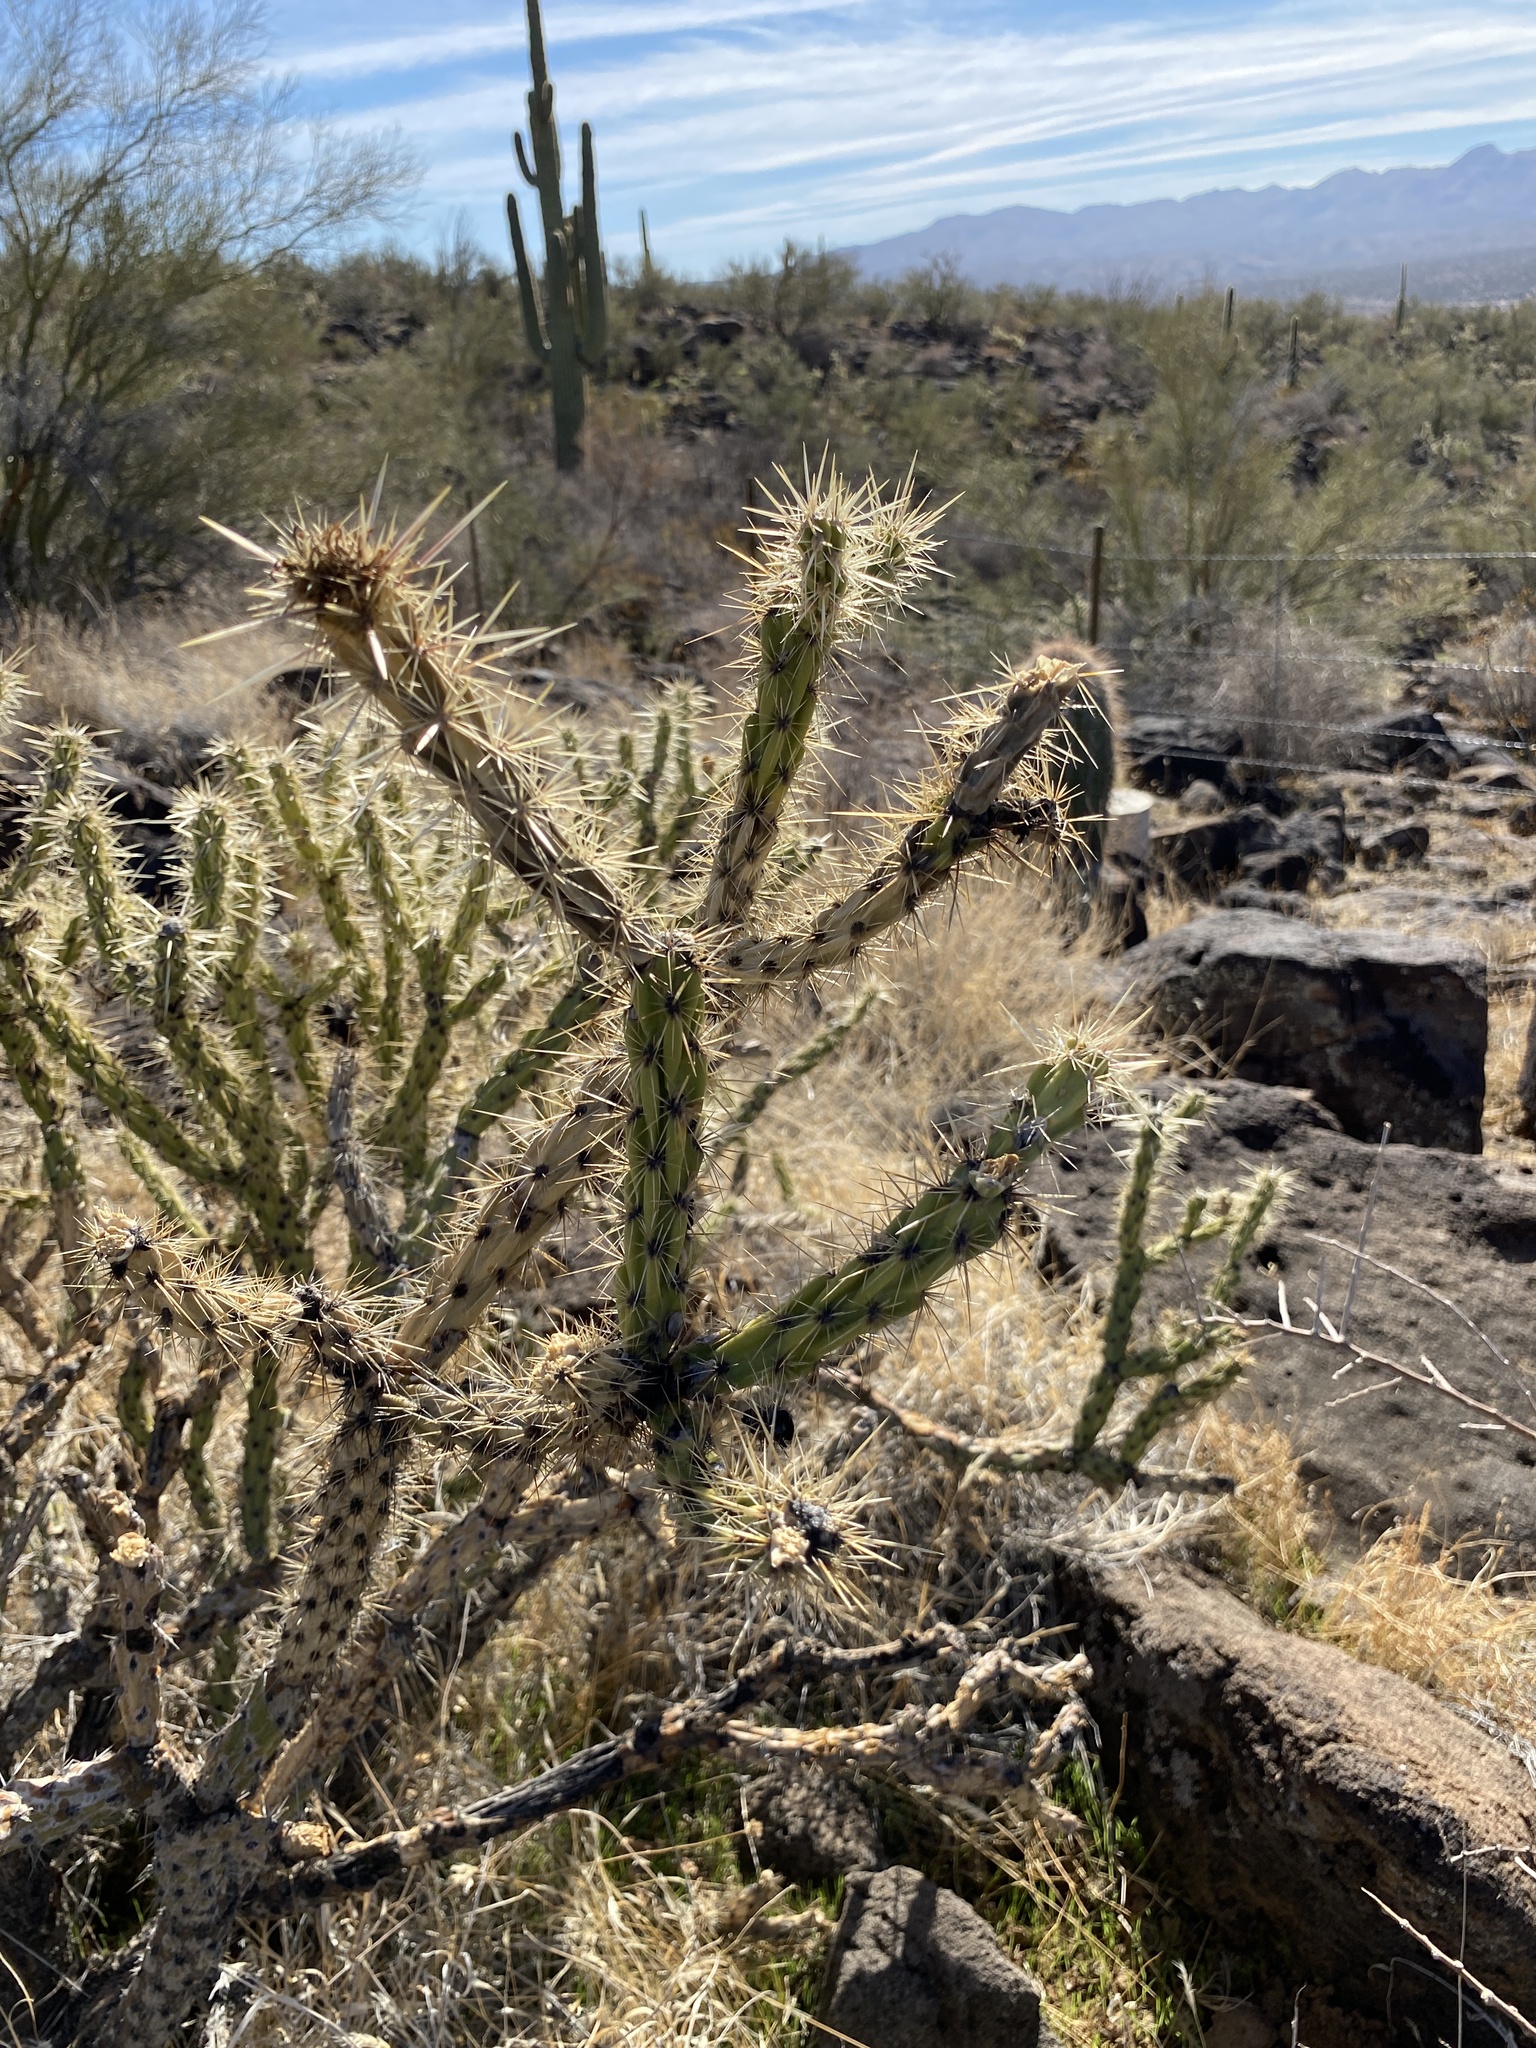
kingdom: Plantae
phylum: Tracheophyta
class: Magnoliopsida
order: Caryophyllales
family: Cactaceae
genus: Cylindropuntia
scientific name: Cylindropuntia acanthocarpa
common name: Buckhorn cholla
